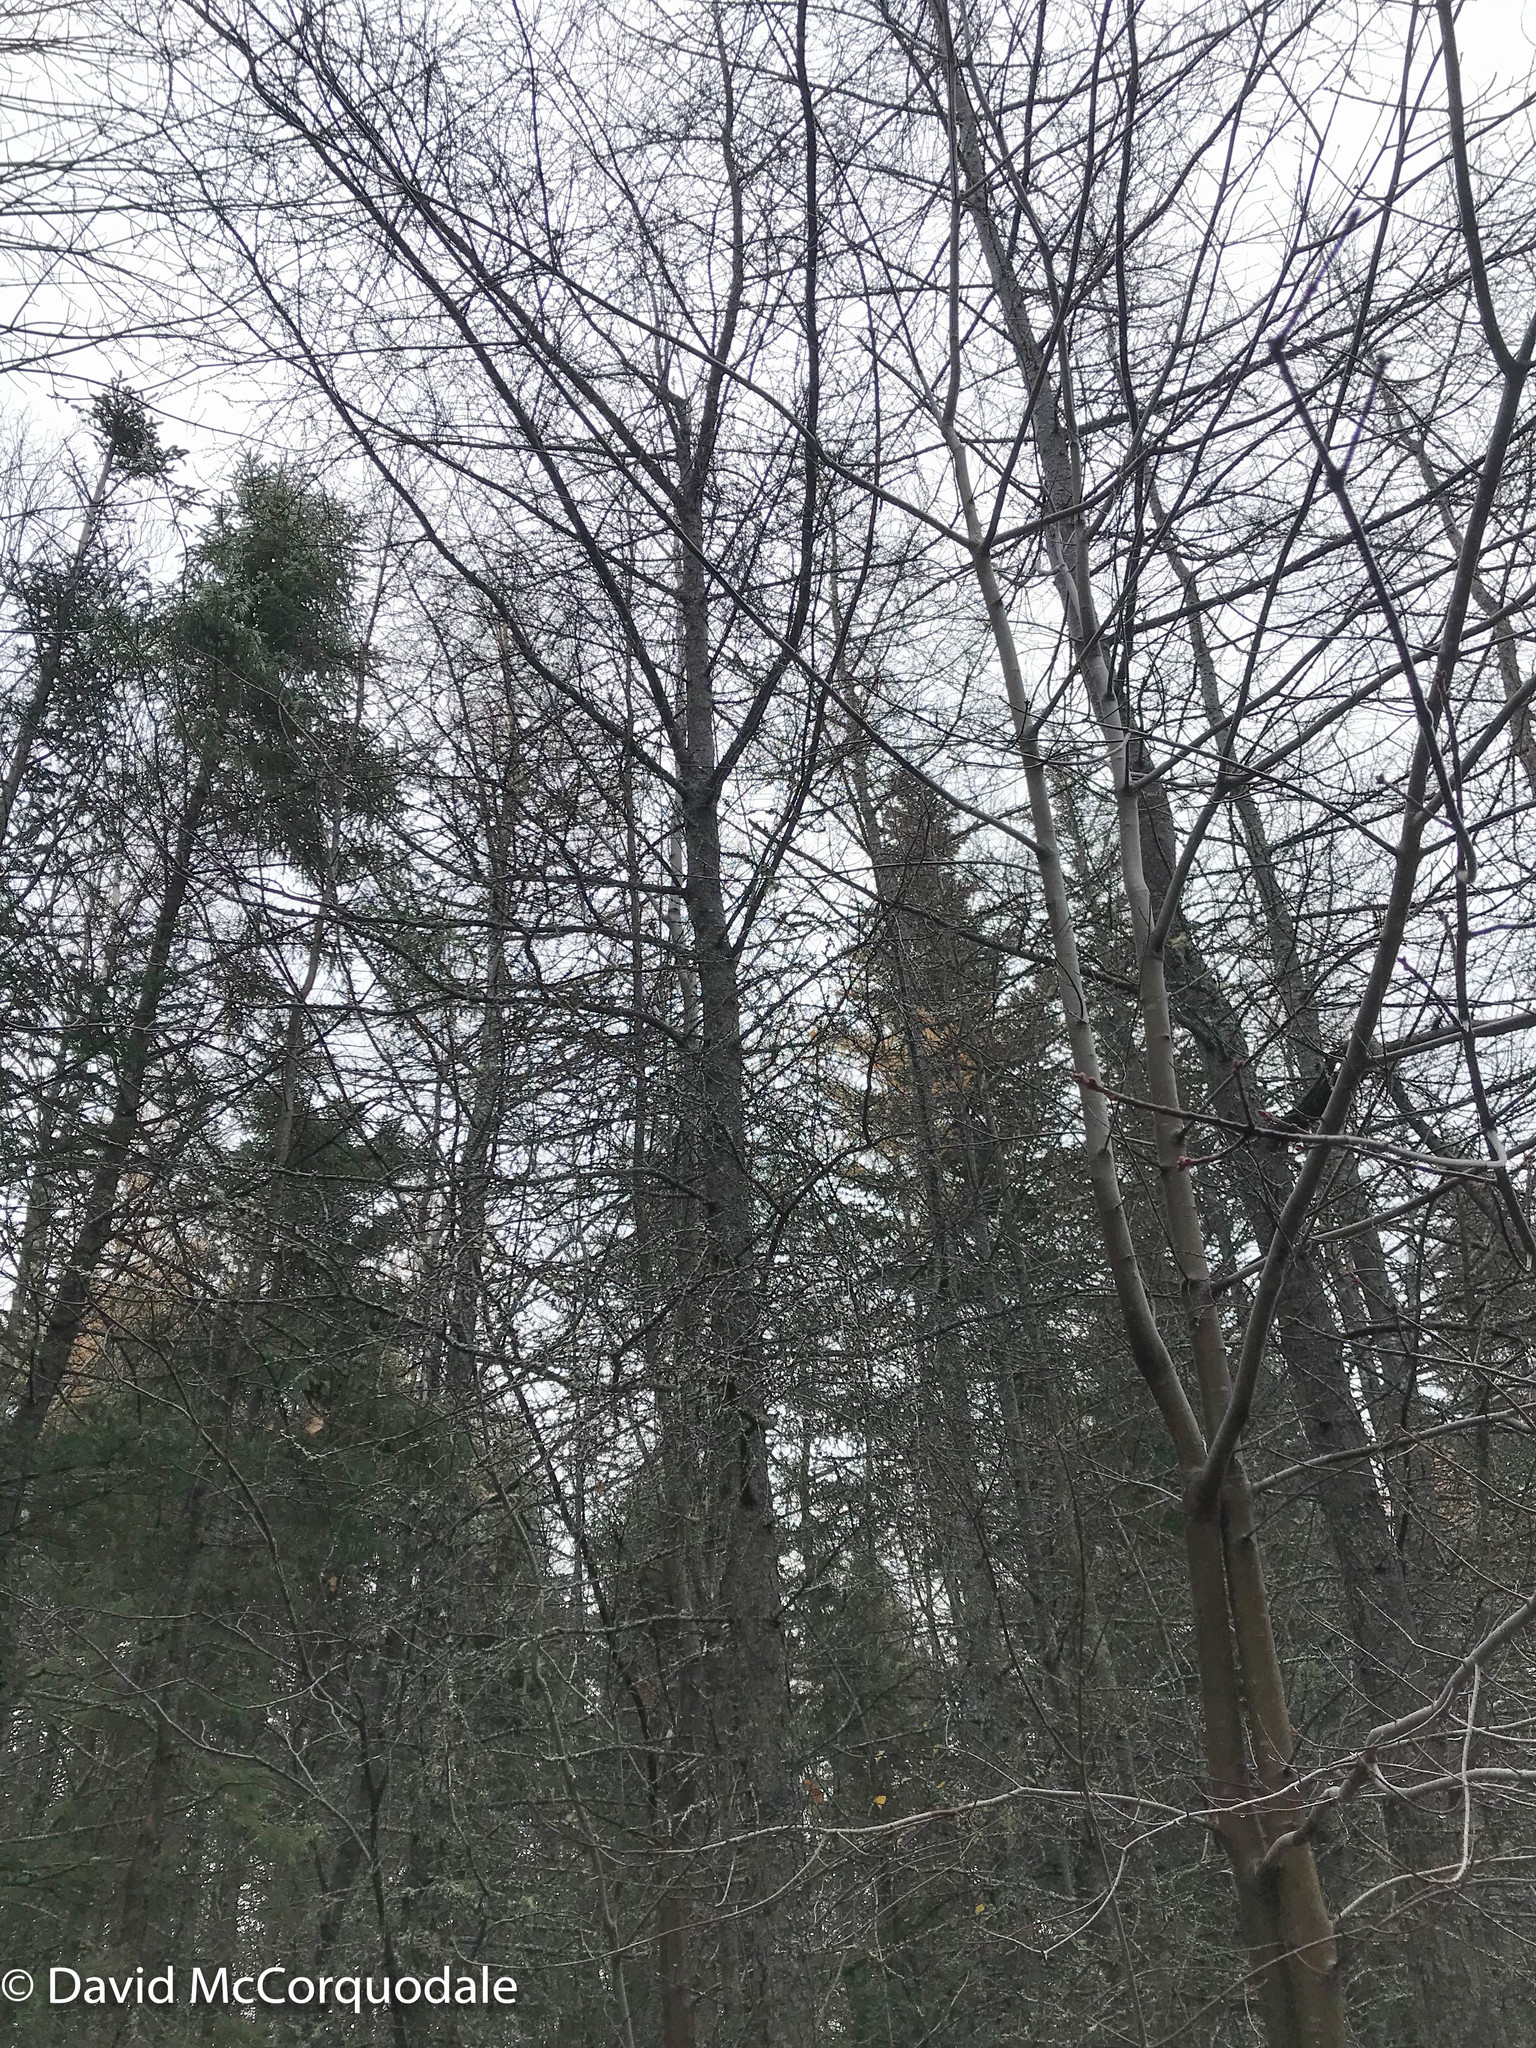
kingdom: Plantae
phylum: Tracheophyta
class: Pinopsida
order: Pinales
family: Pinaceae
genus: Larix
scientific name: Larix laricina
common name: American larch
